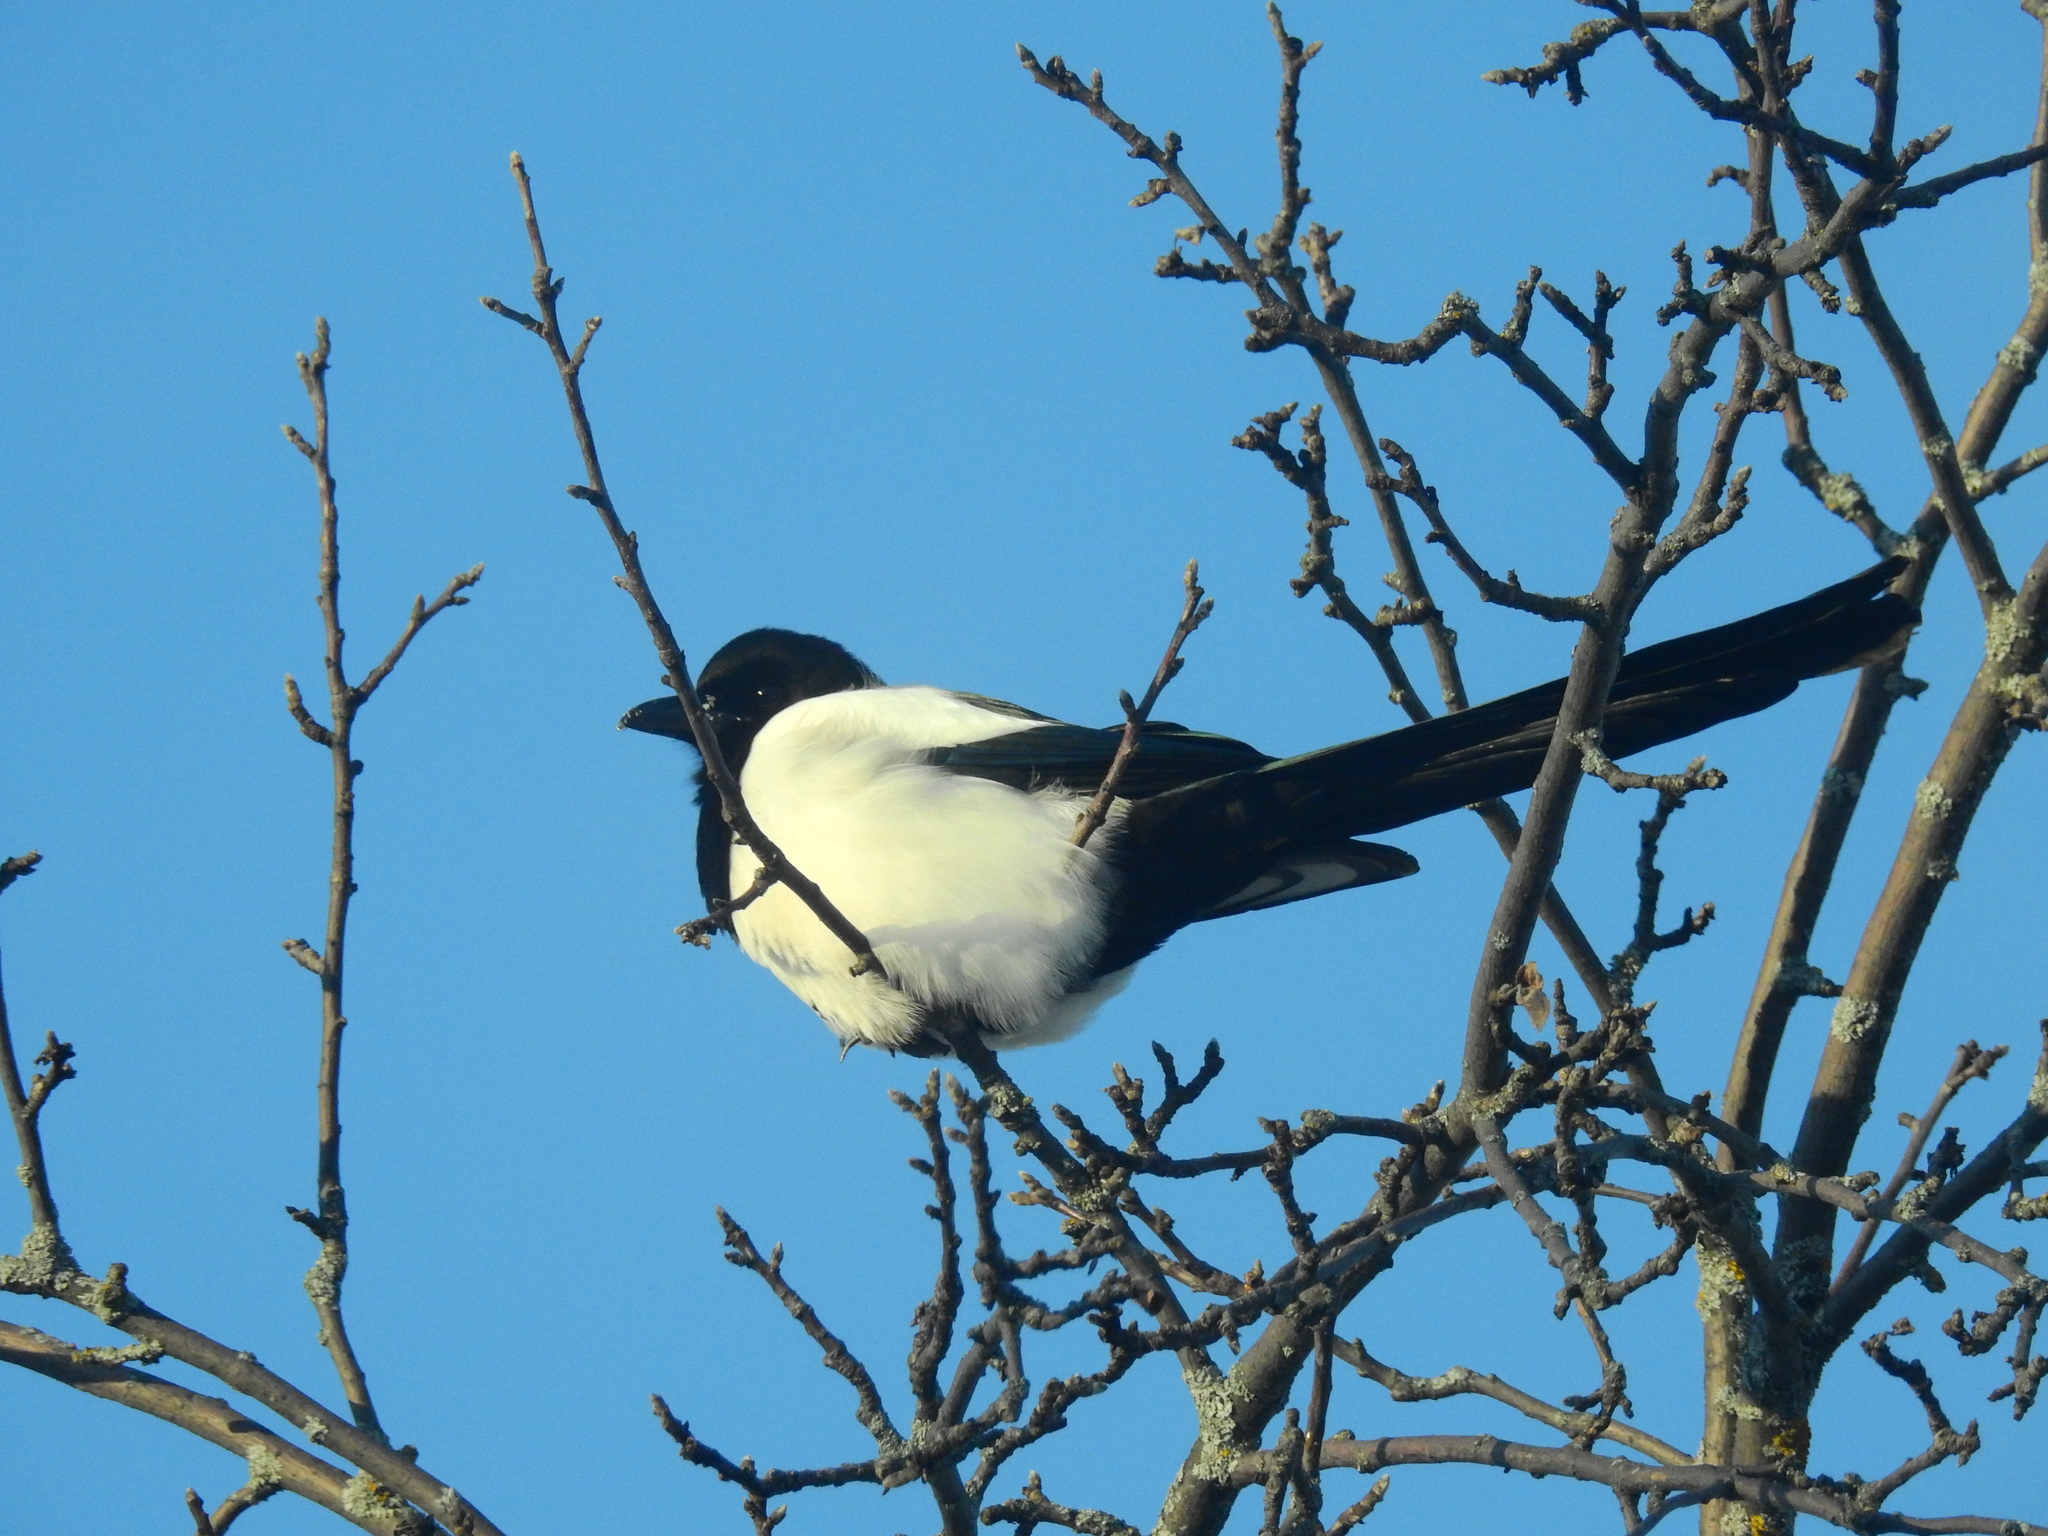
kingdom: Animalia
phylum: Chordata
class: Aves
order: Passeriformes
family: Corvidae
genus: Pica
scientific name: Pica pica
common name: Eurasian magpie
